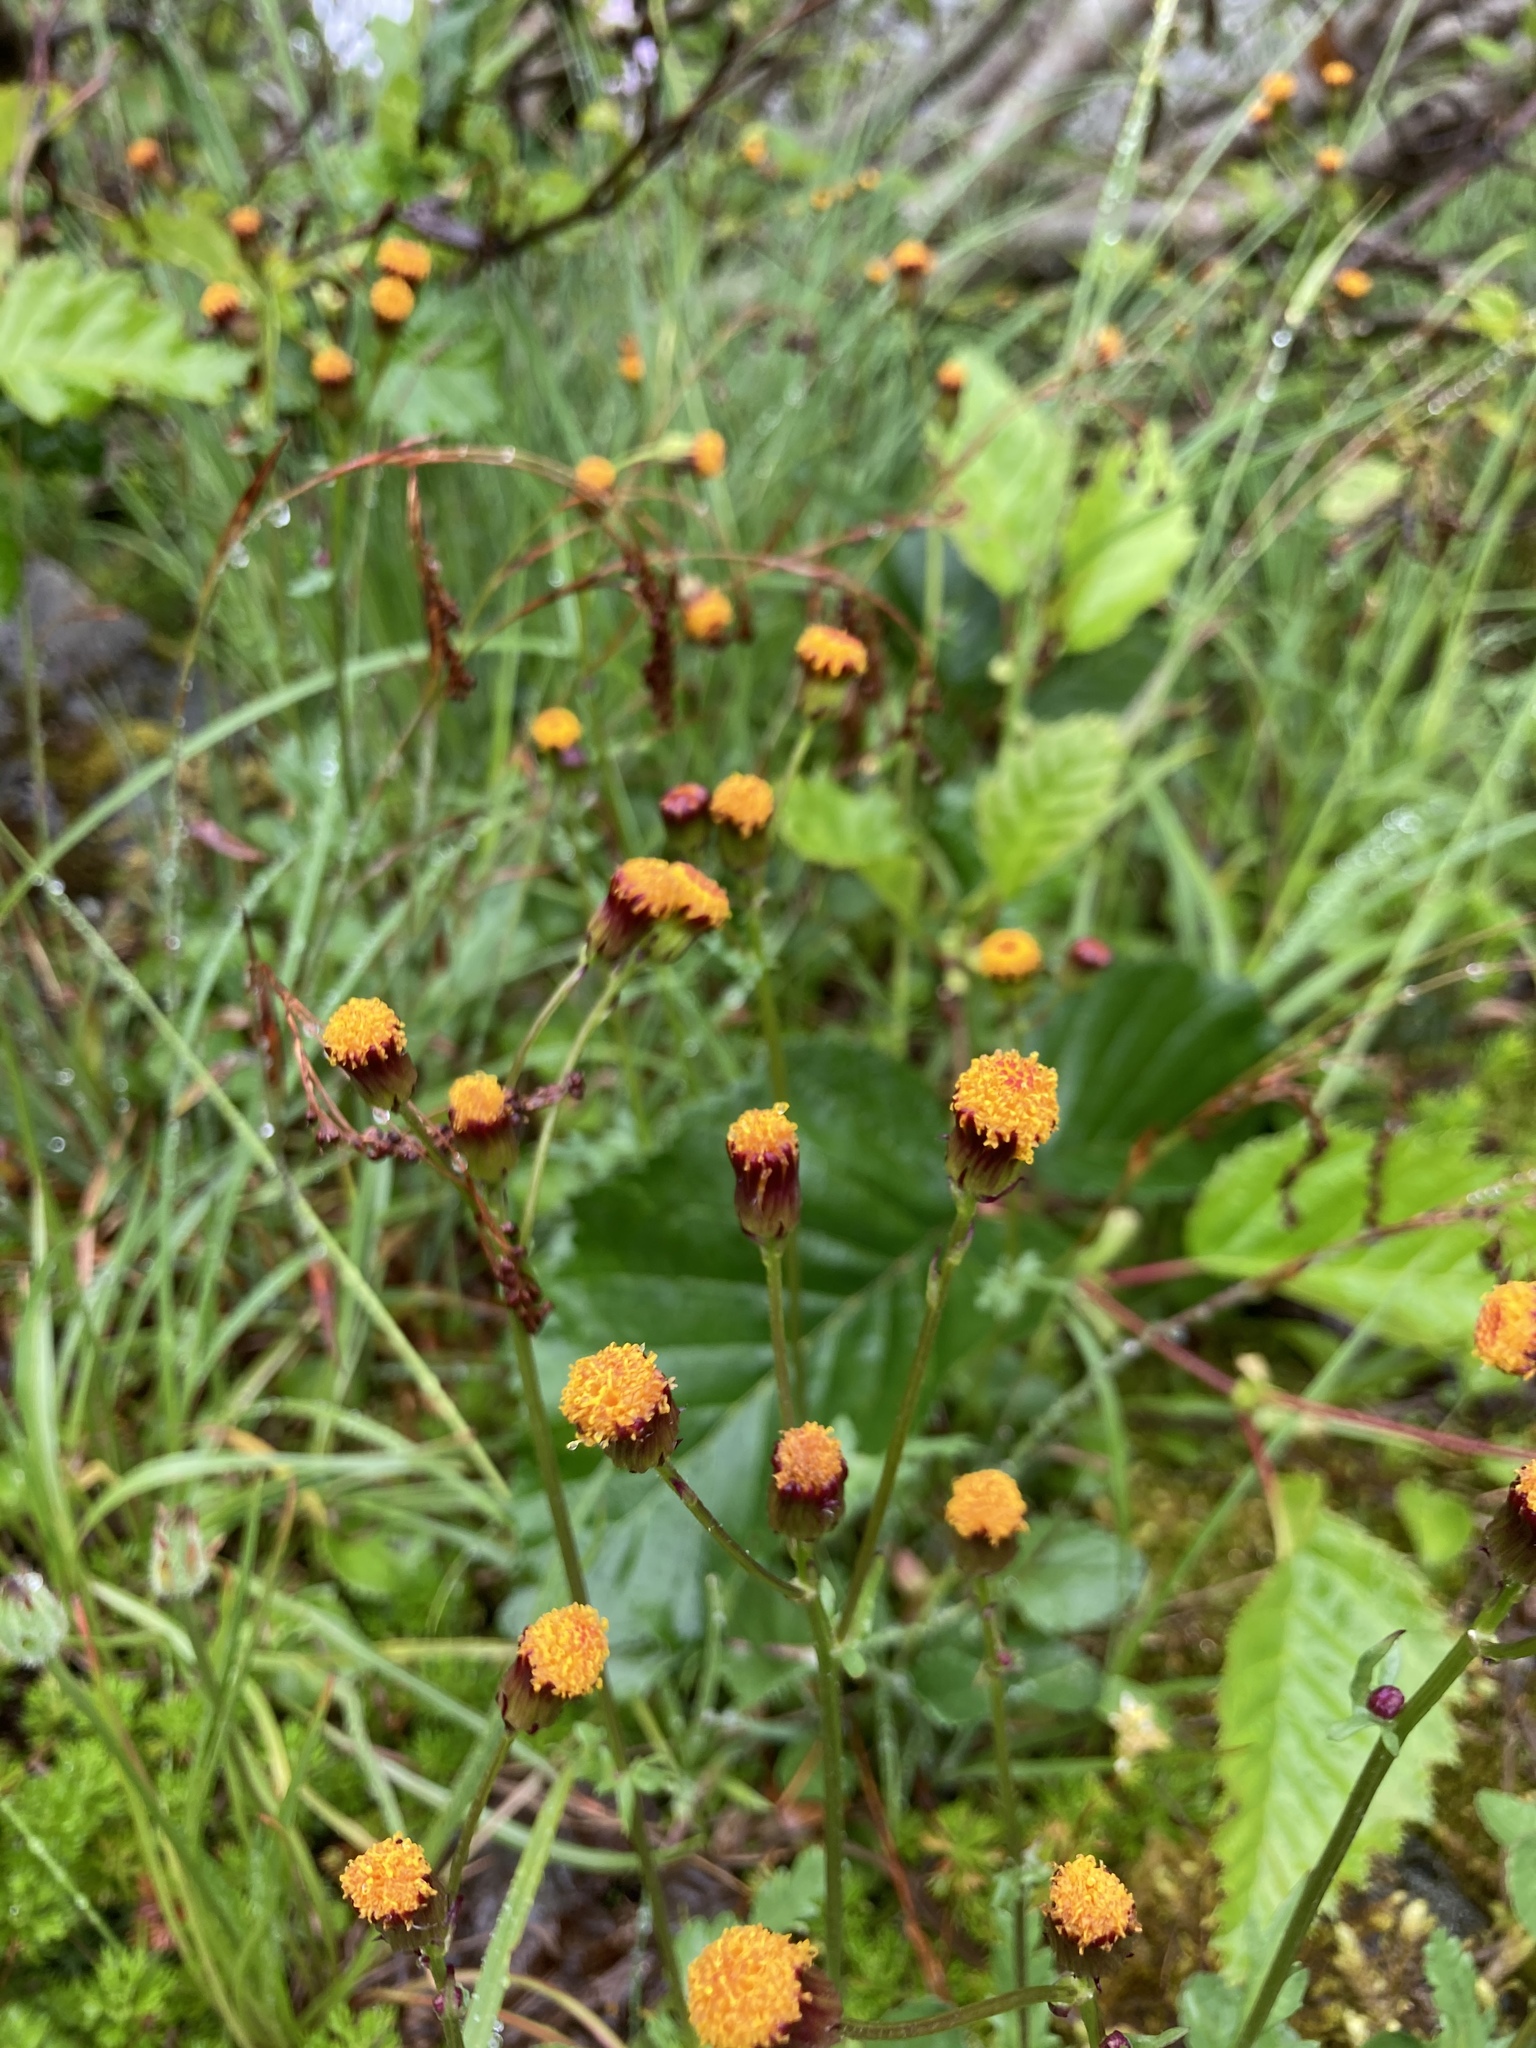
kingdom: Plantae
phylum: Tracheophyta
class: Magnoliopsida
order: Asterales
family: Asteraceae
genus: Packera
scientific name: Packera pauciflora
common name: Alpine groundsel
